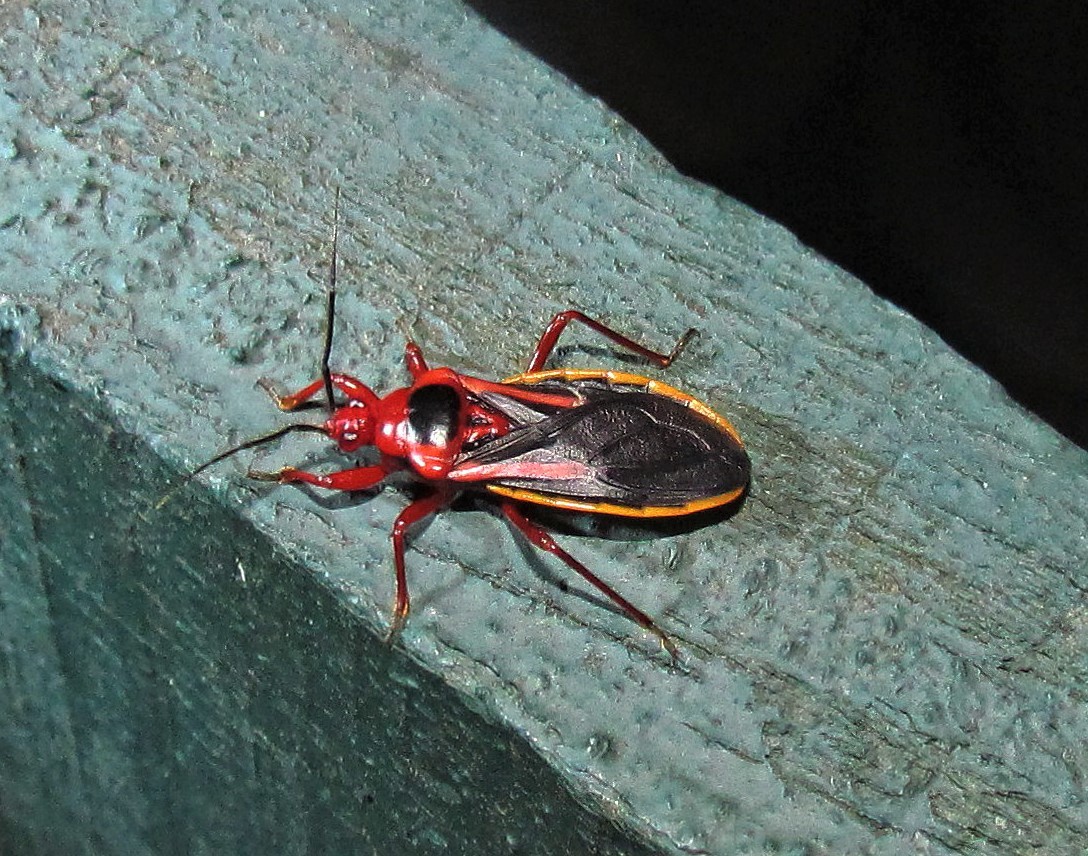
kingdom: Animalia
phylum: Arthropoda
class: Insecta
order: Hemiptera
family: Reduviidae
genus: Brontostoma
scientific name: Brontostoma discus
